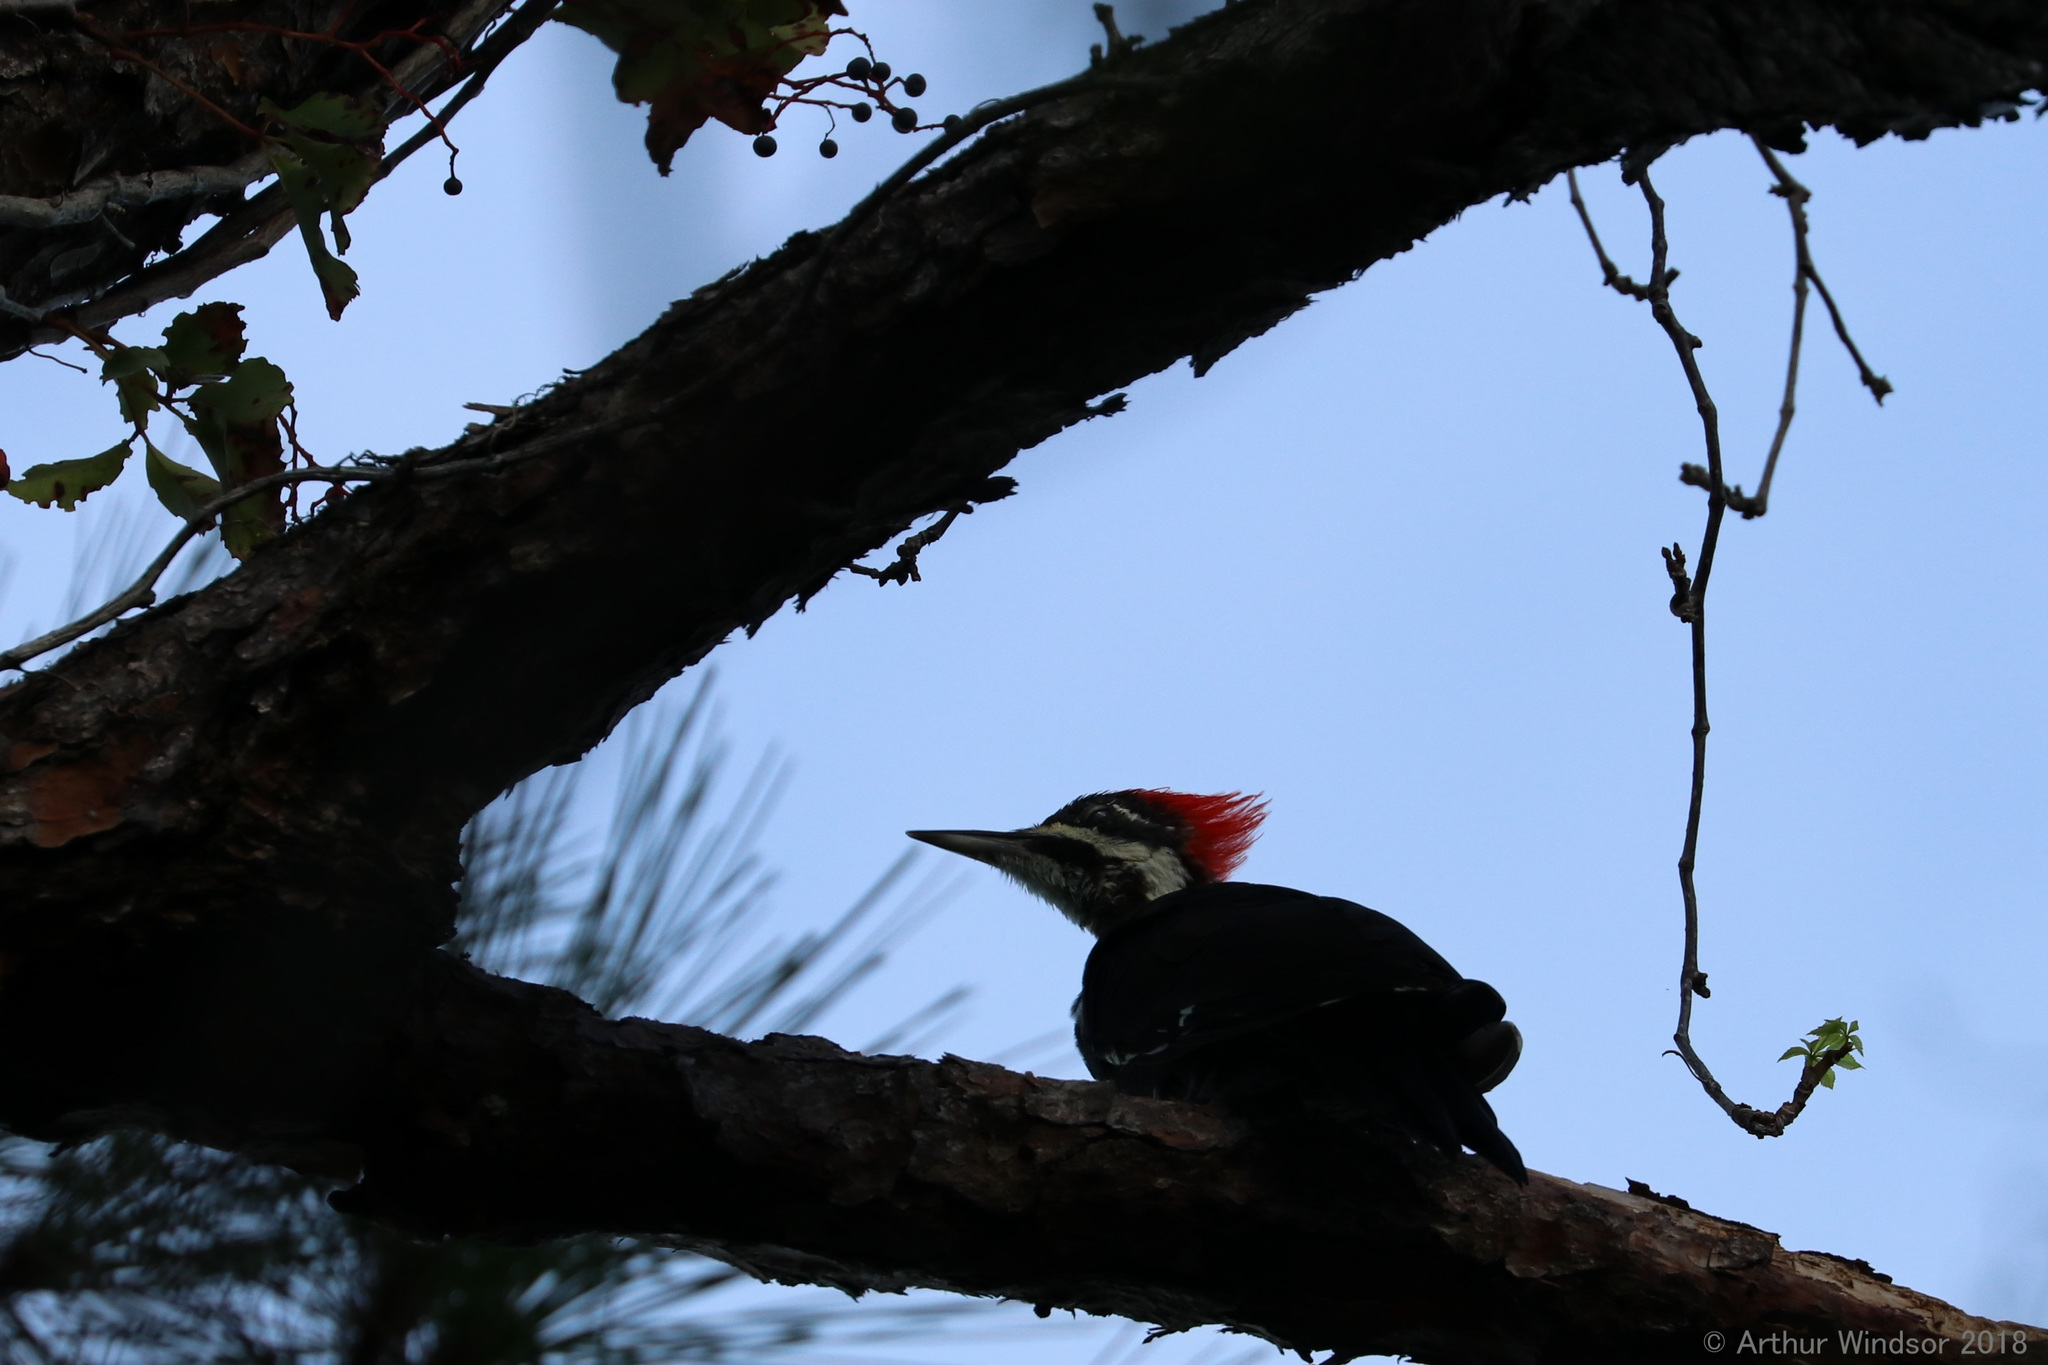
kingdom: Animalia
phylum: Chordata
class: Aves
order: Piciformes
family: Picidae
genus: Dryocopus
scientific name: Dryocopus pileatus
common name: Pileated woodpecker
